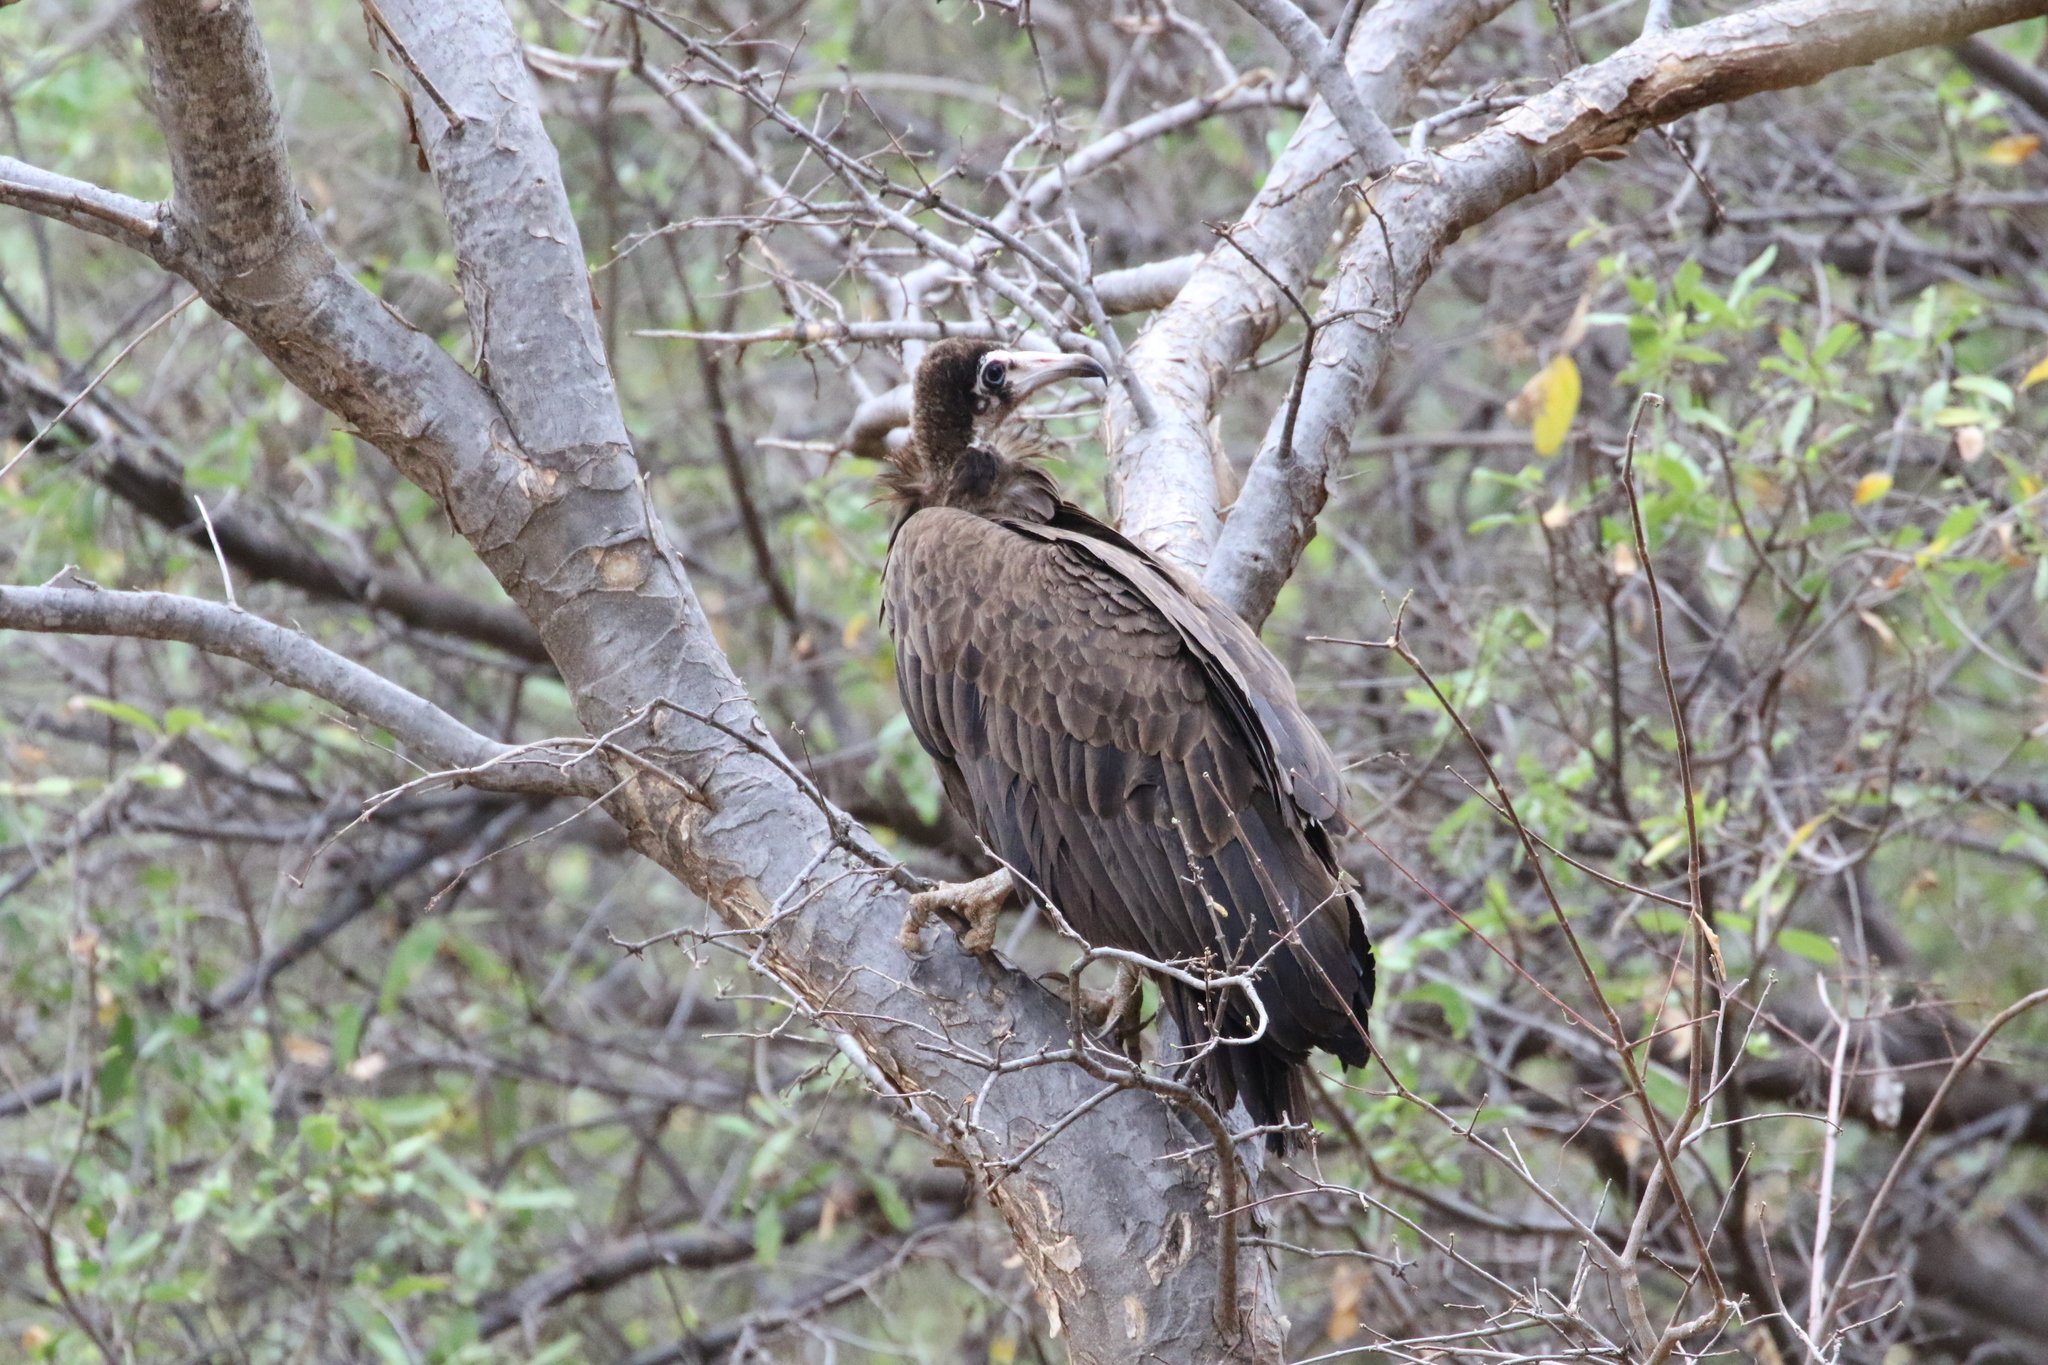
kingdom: Animalia
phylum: Chordata
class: Aves
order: Accipitriformes
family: Accipitridae
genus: Necrosyrtes
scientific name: Necrosyrtes monachus
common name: Hooded vulture
